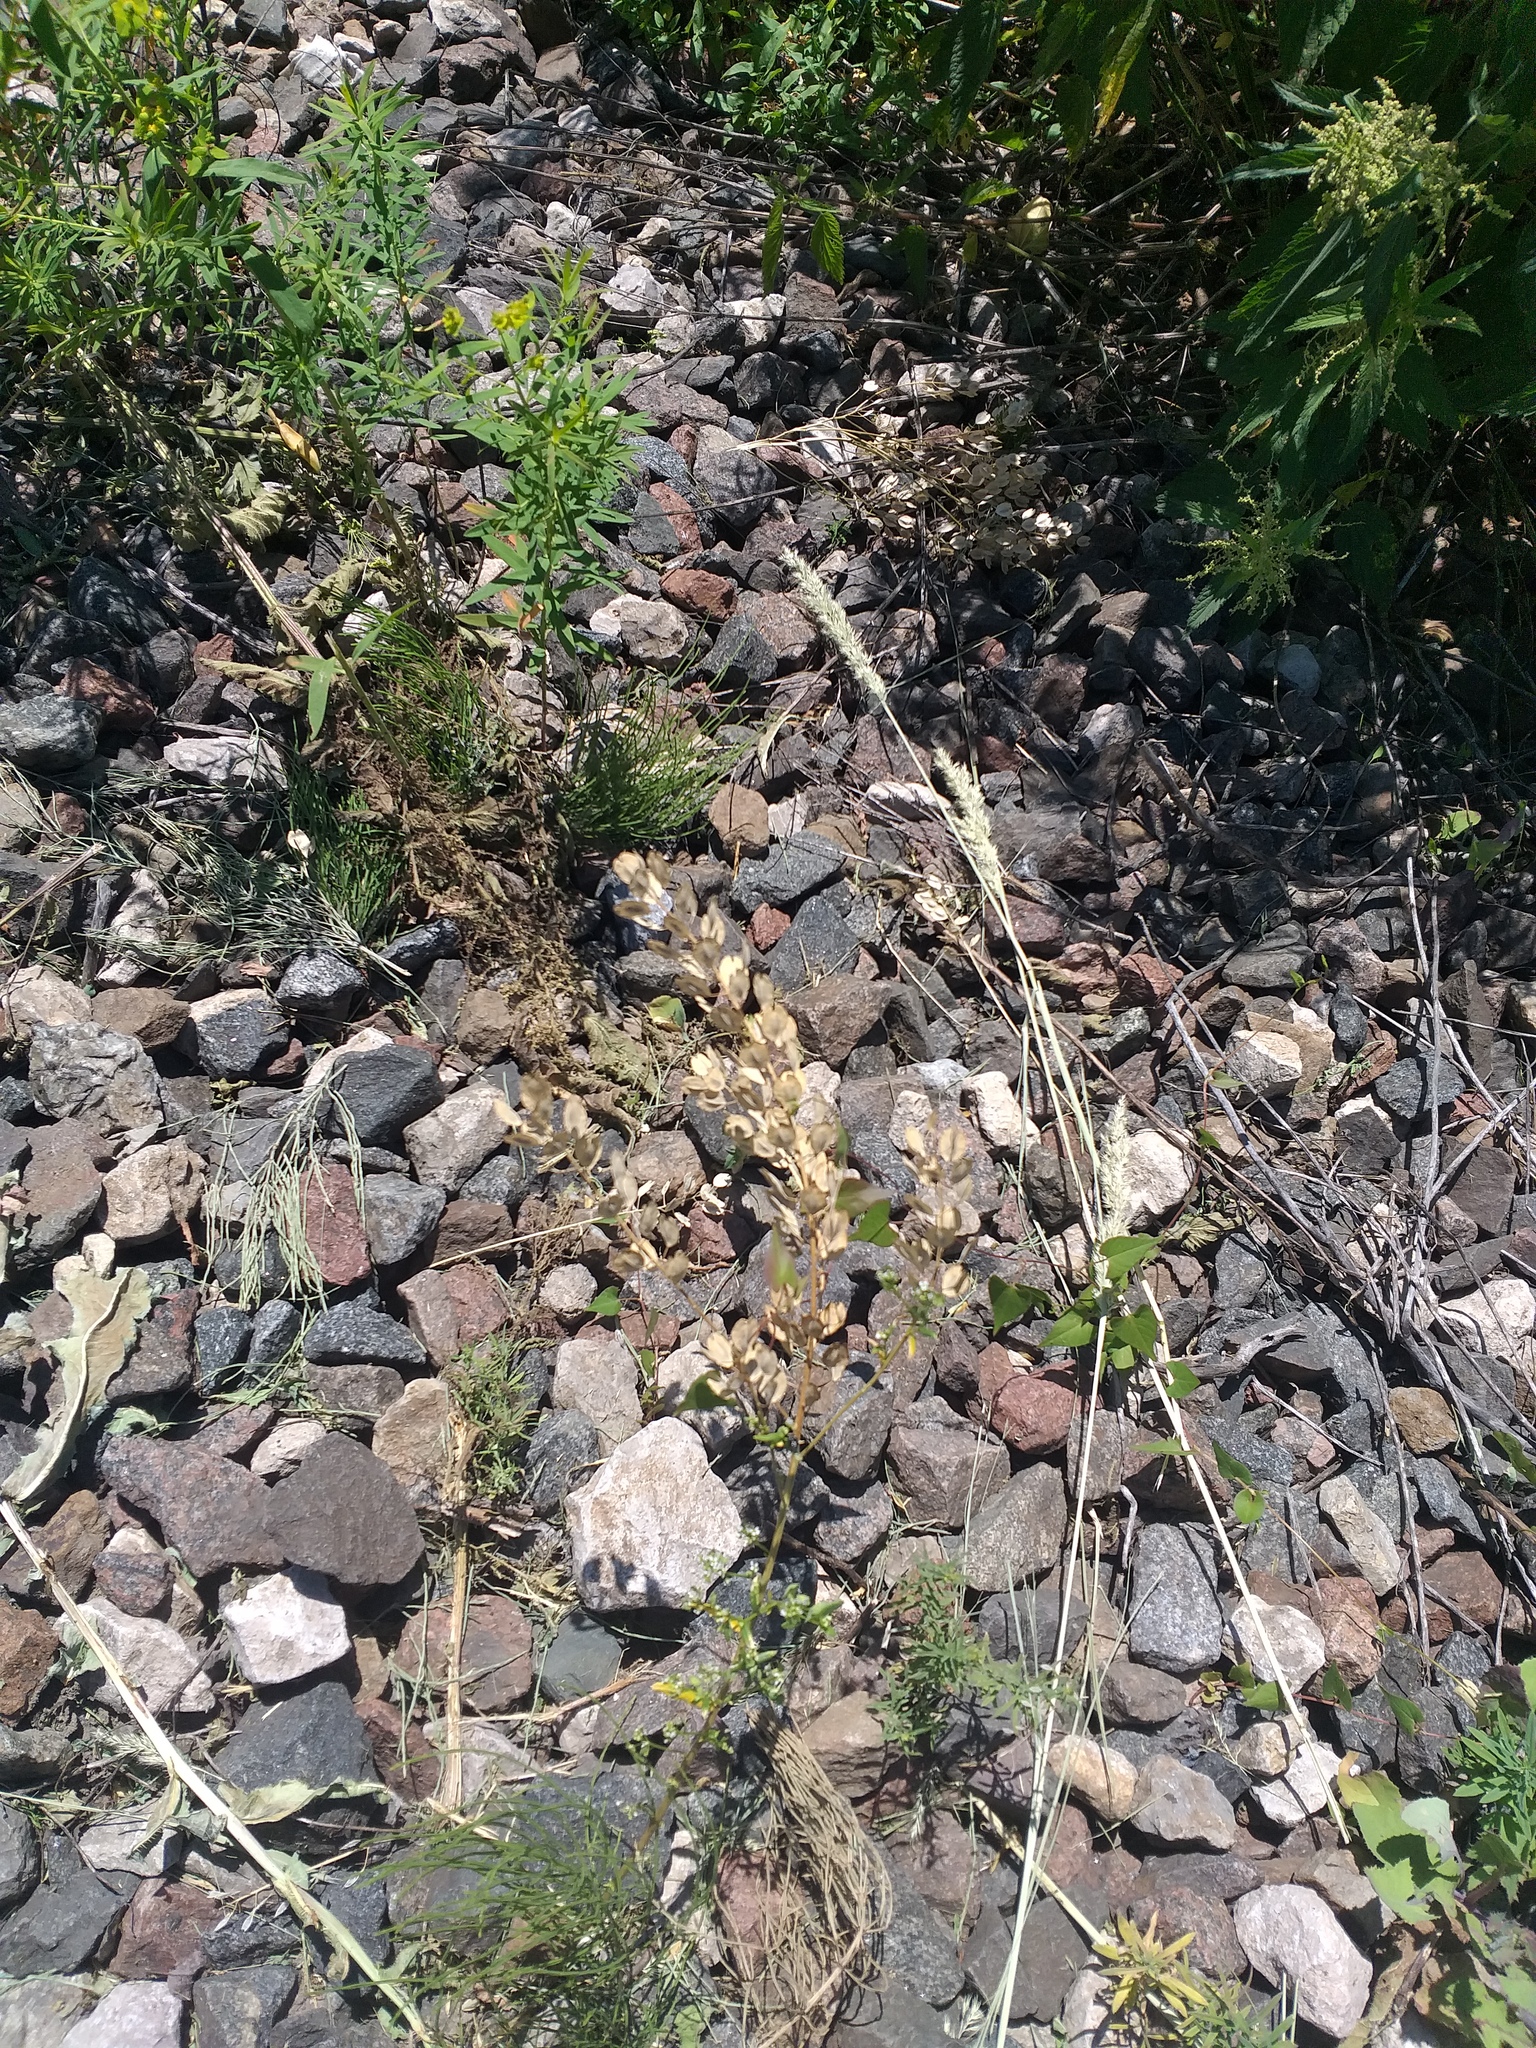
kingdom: Plantae
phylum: Tracheophyta
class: Magnoliopsida
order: Brassicales
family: Brassicaceae
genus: Thlaspi
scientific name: Thlaspi arvense
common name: Field pennycress
